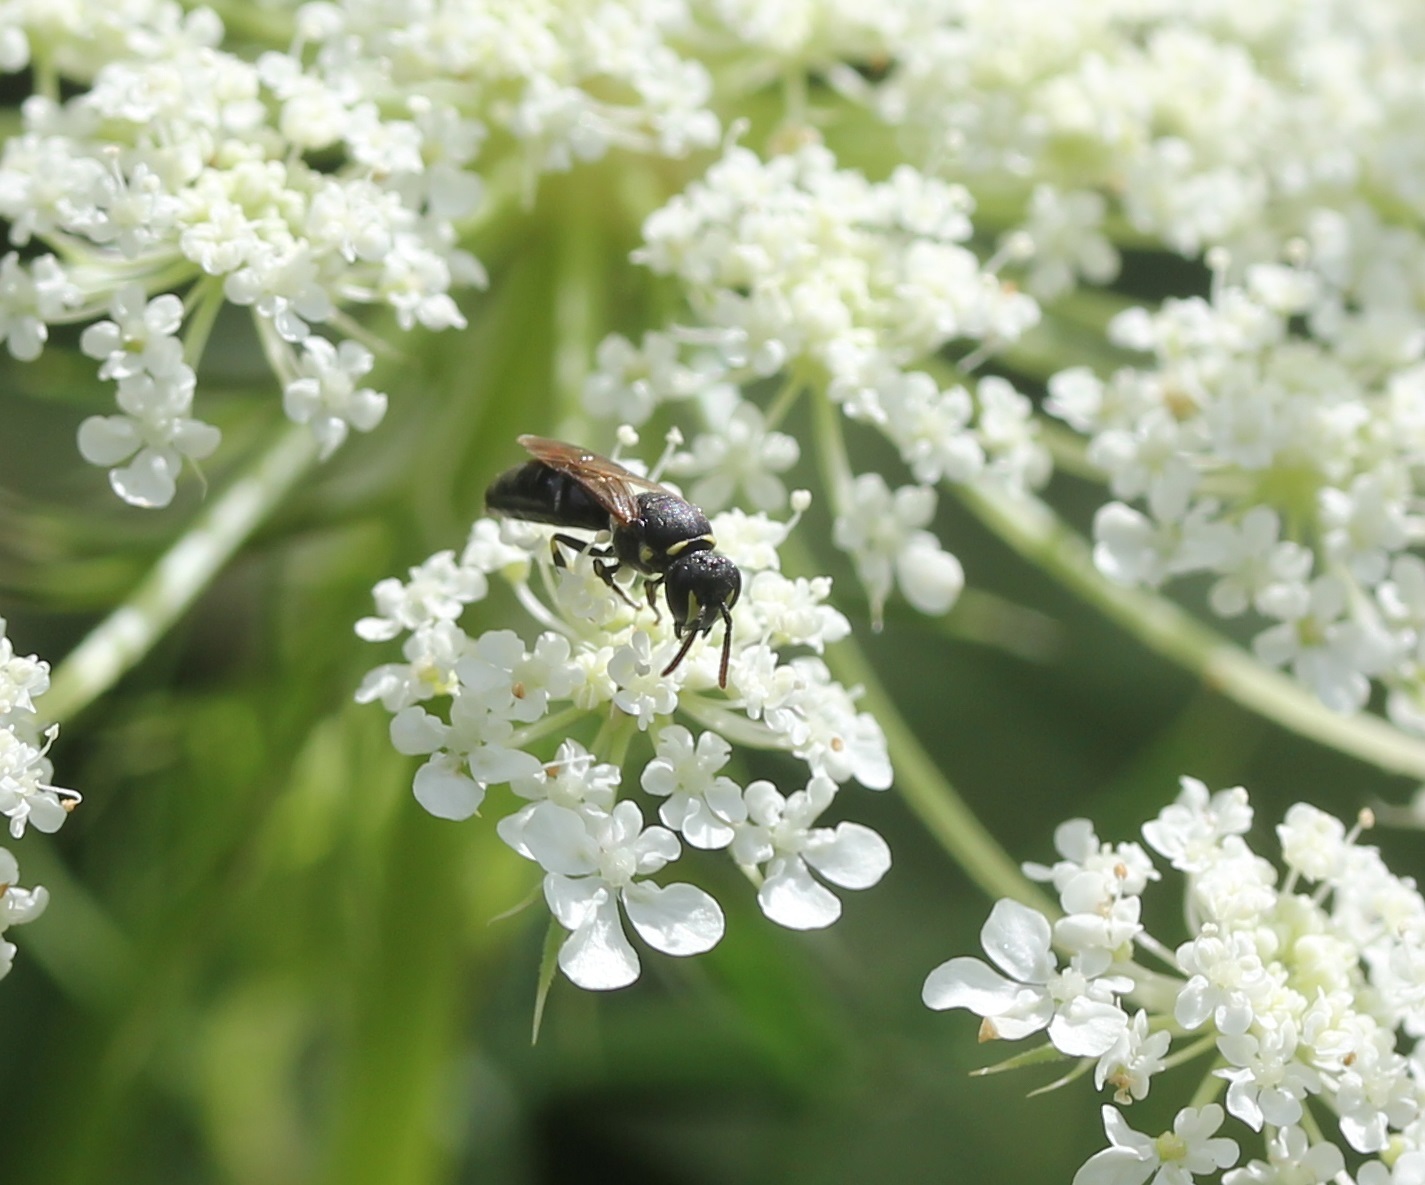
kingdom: Animalia
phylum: Arthropoda
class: Insecta
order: Hymenoptera
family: Colletidae
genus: Hylaeus
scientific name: Hylaeus modestus
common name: Yellow-faced bee
